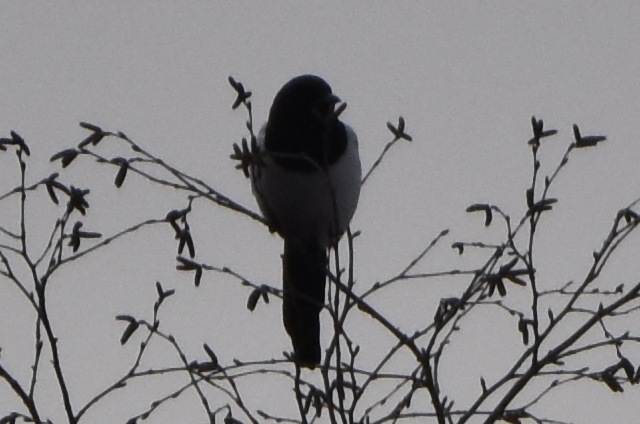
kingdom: Animalia
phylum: Chordata
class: Aves
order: Passeriformes
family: Corvidae
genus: Pica
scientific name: Pica pica
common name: Eurasian magpie
